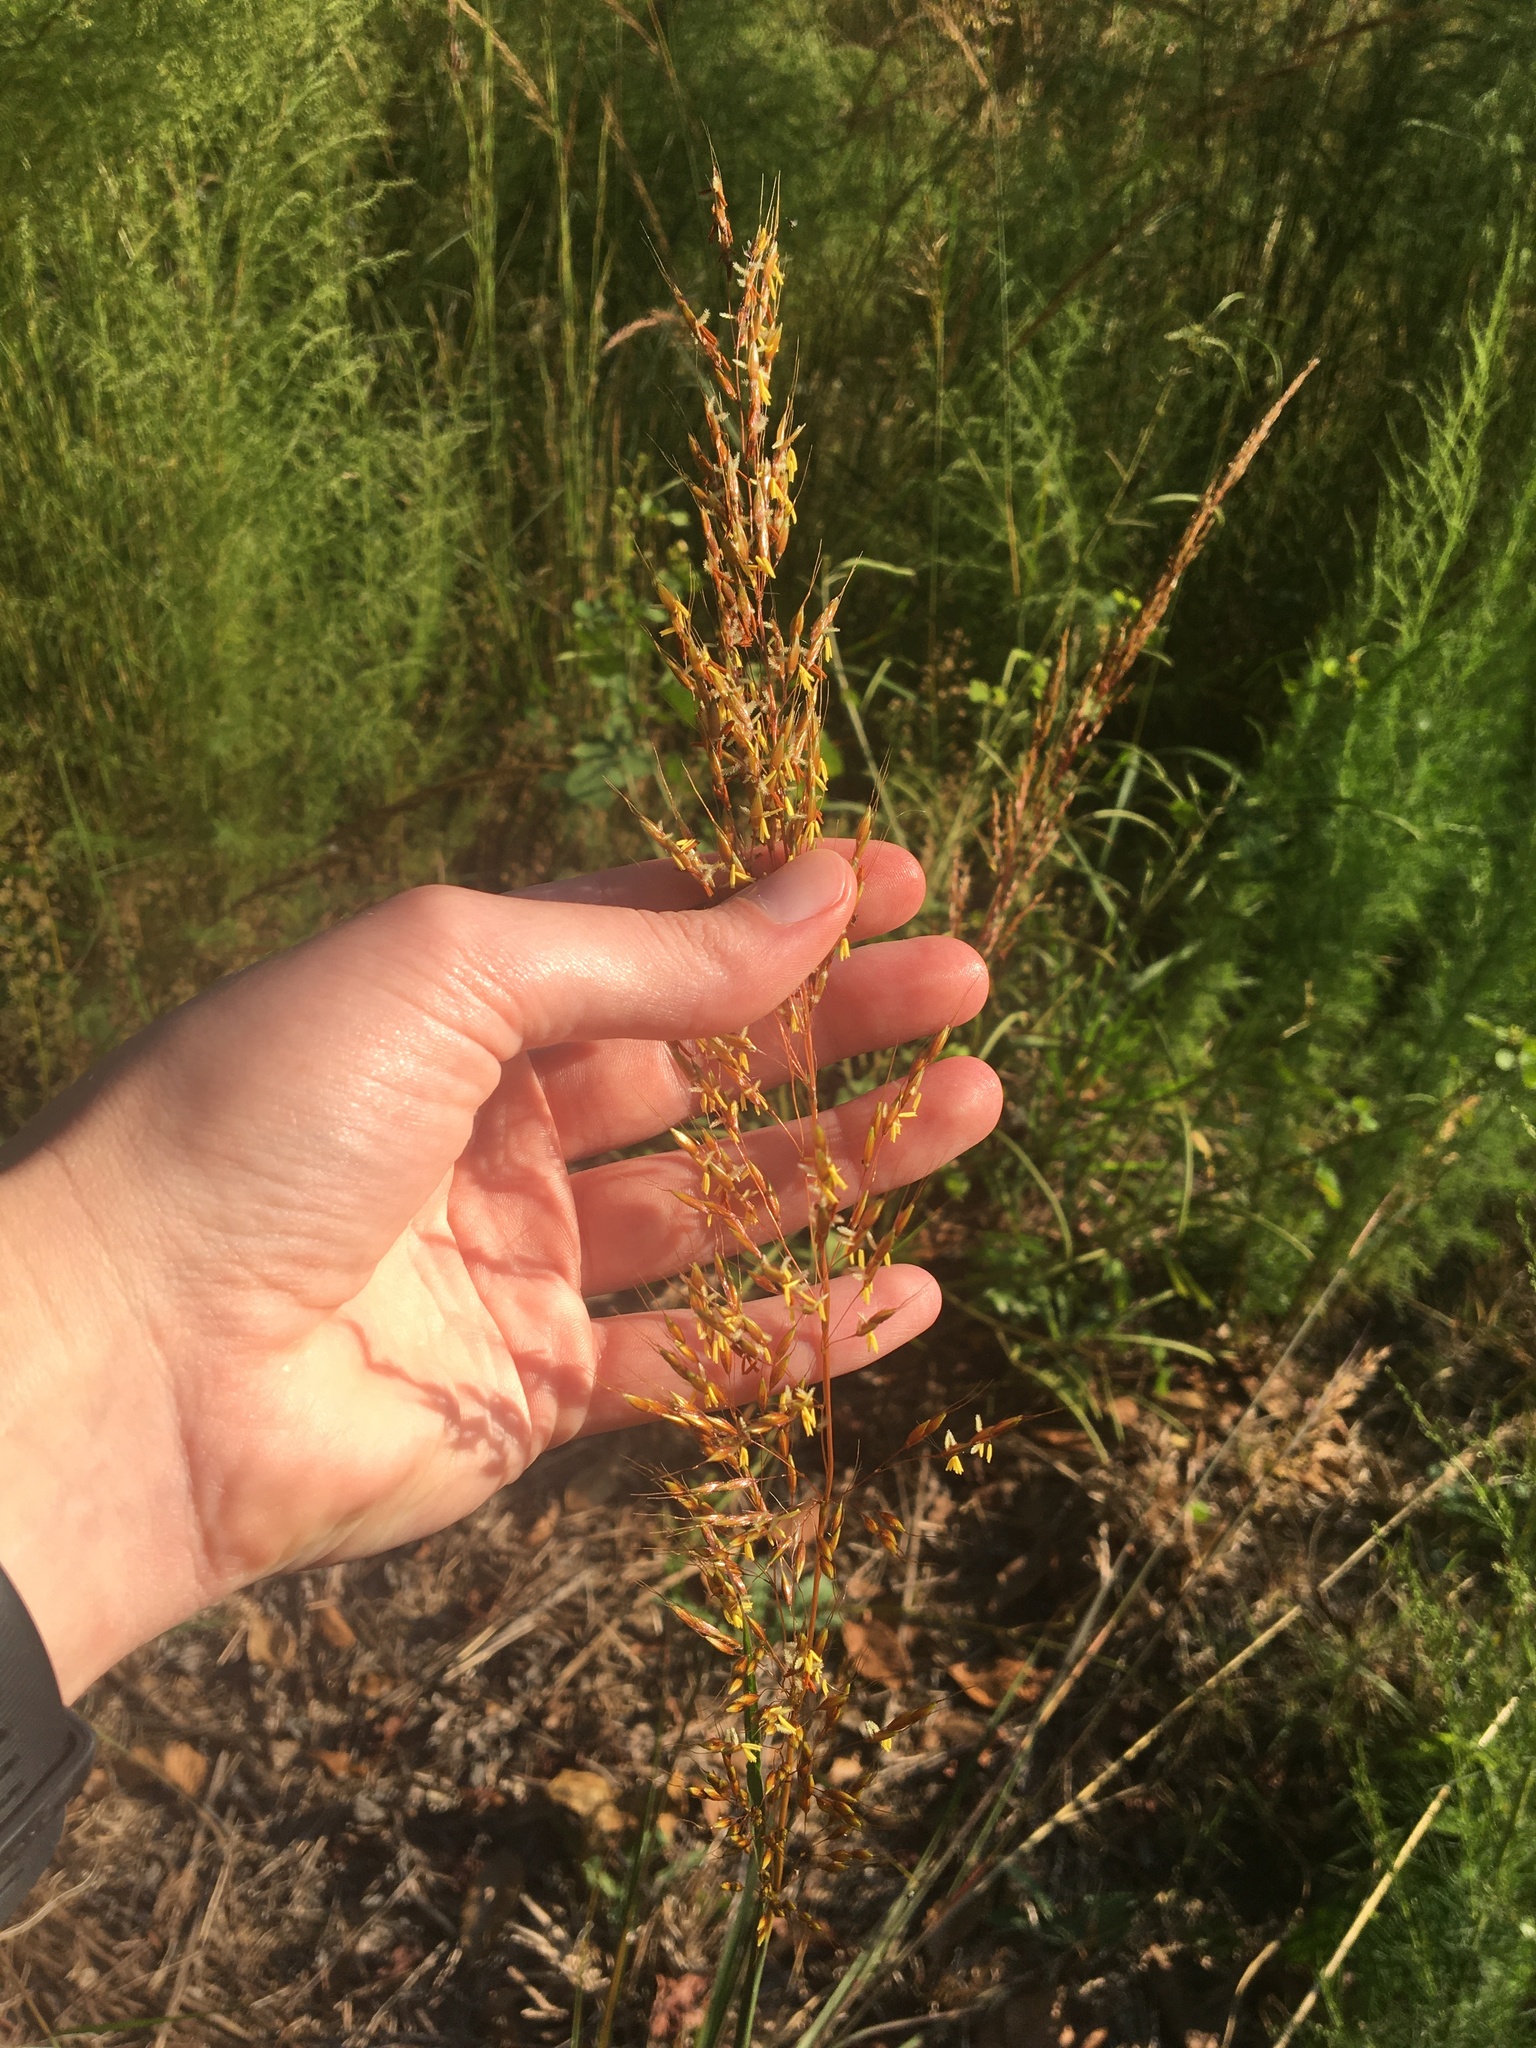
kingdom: Plantae
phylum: Tracheophyta
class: Liliopsida
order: Poales
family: Poaceae
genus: Sorghastrum
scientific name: Sorghastrum nutans
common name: Indian grass
